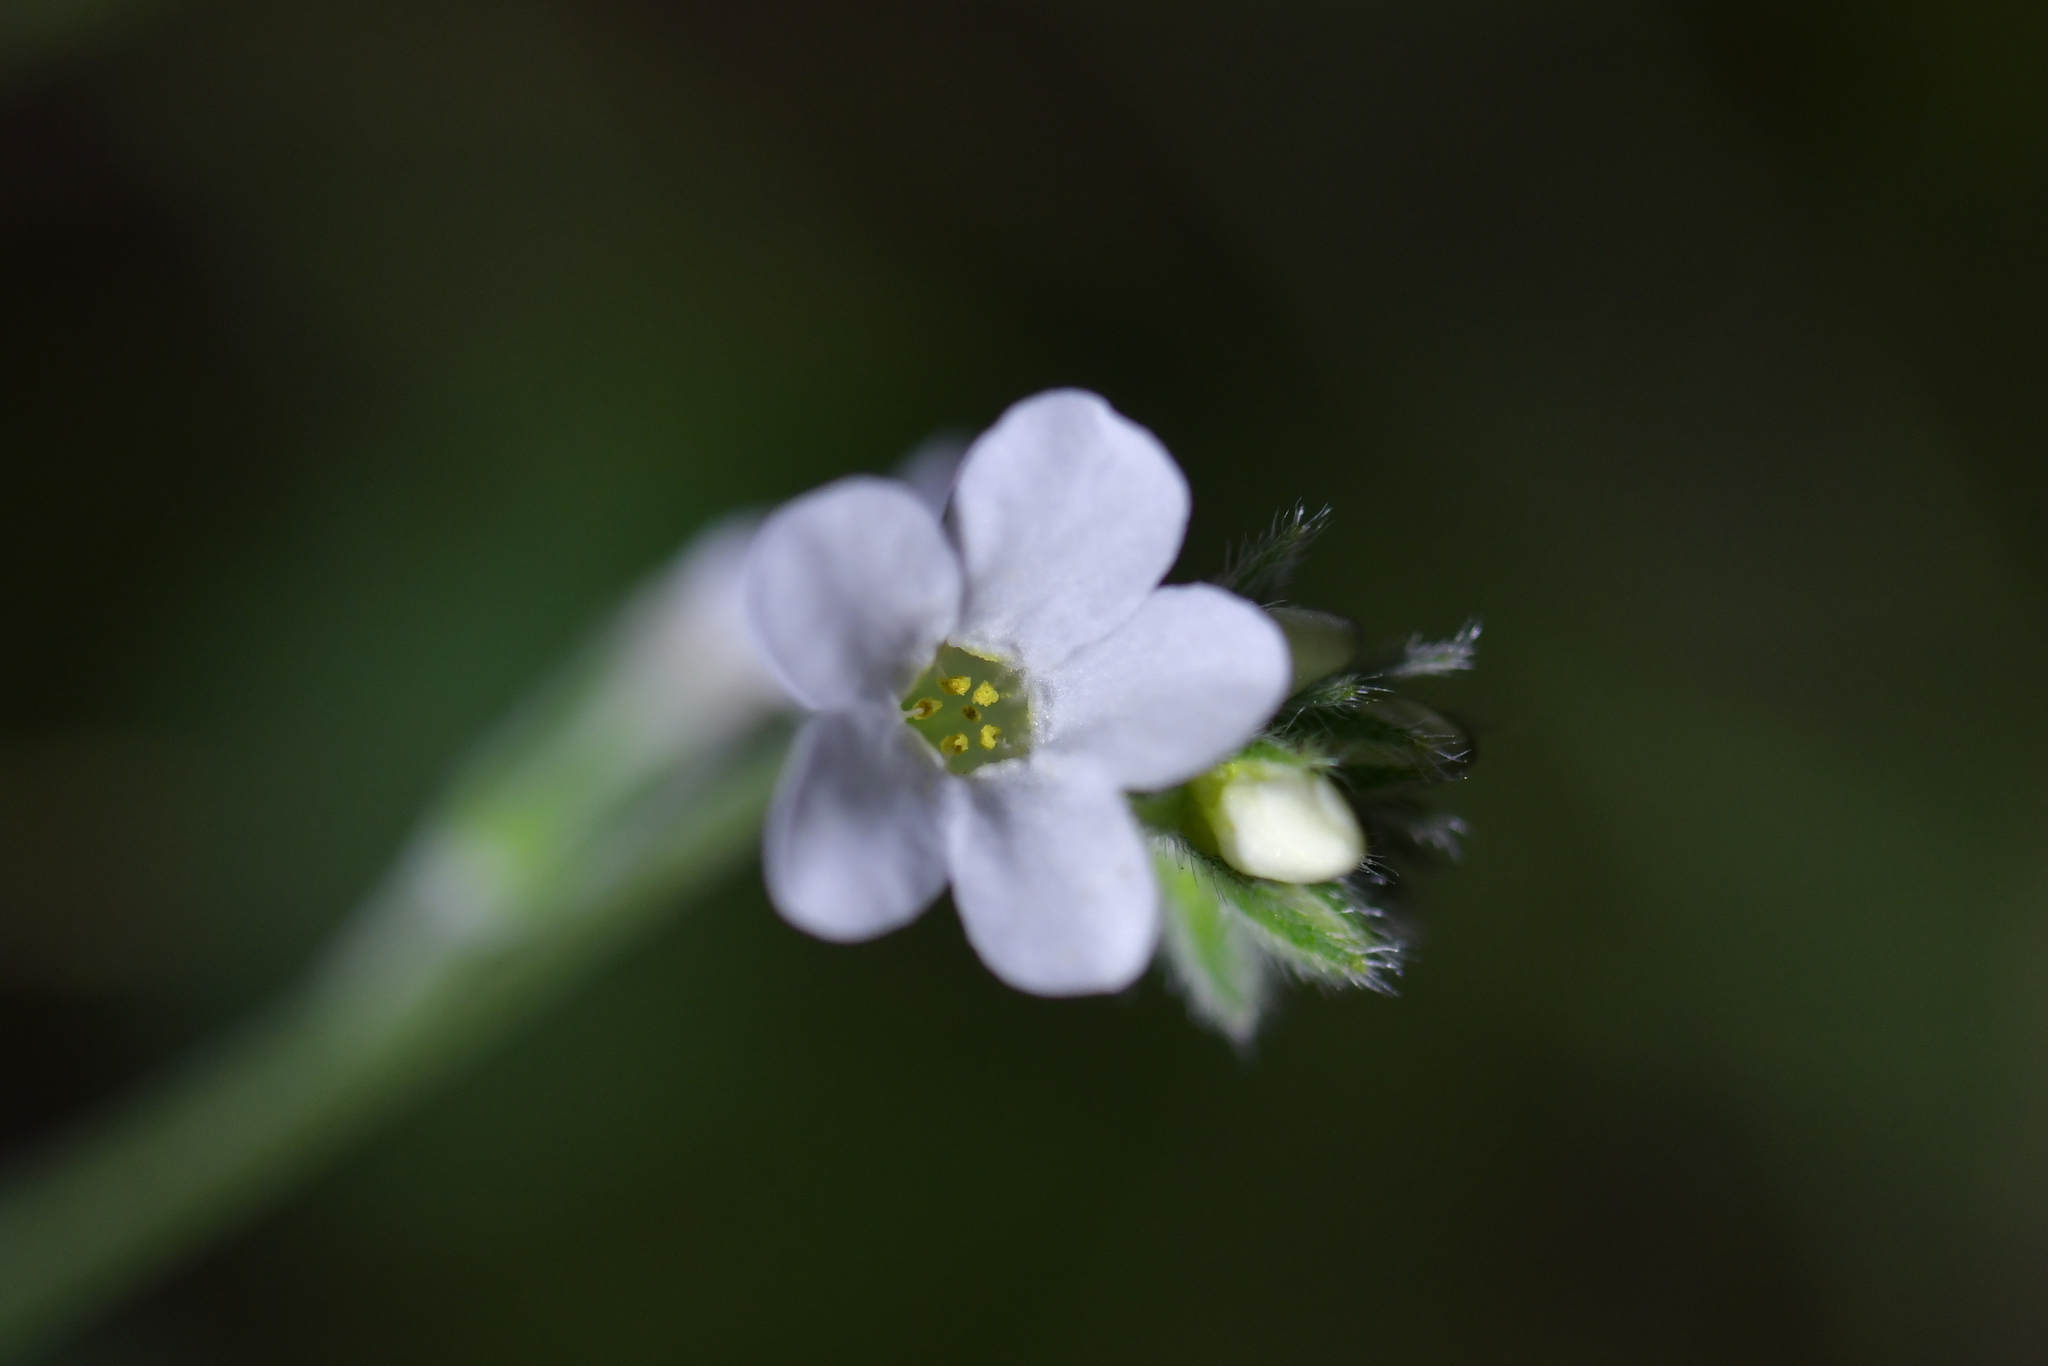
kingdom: Plantae
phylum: Tracheophyta
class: Magnoliopsida
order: Boraginales
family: Boraginaceae
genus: Myosotis
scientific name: Myosotis australis
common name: Australian forget-me-not
